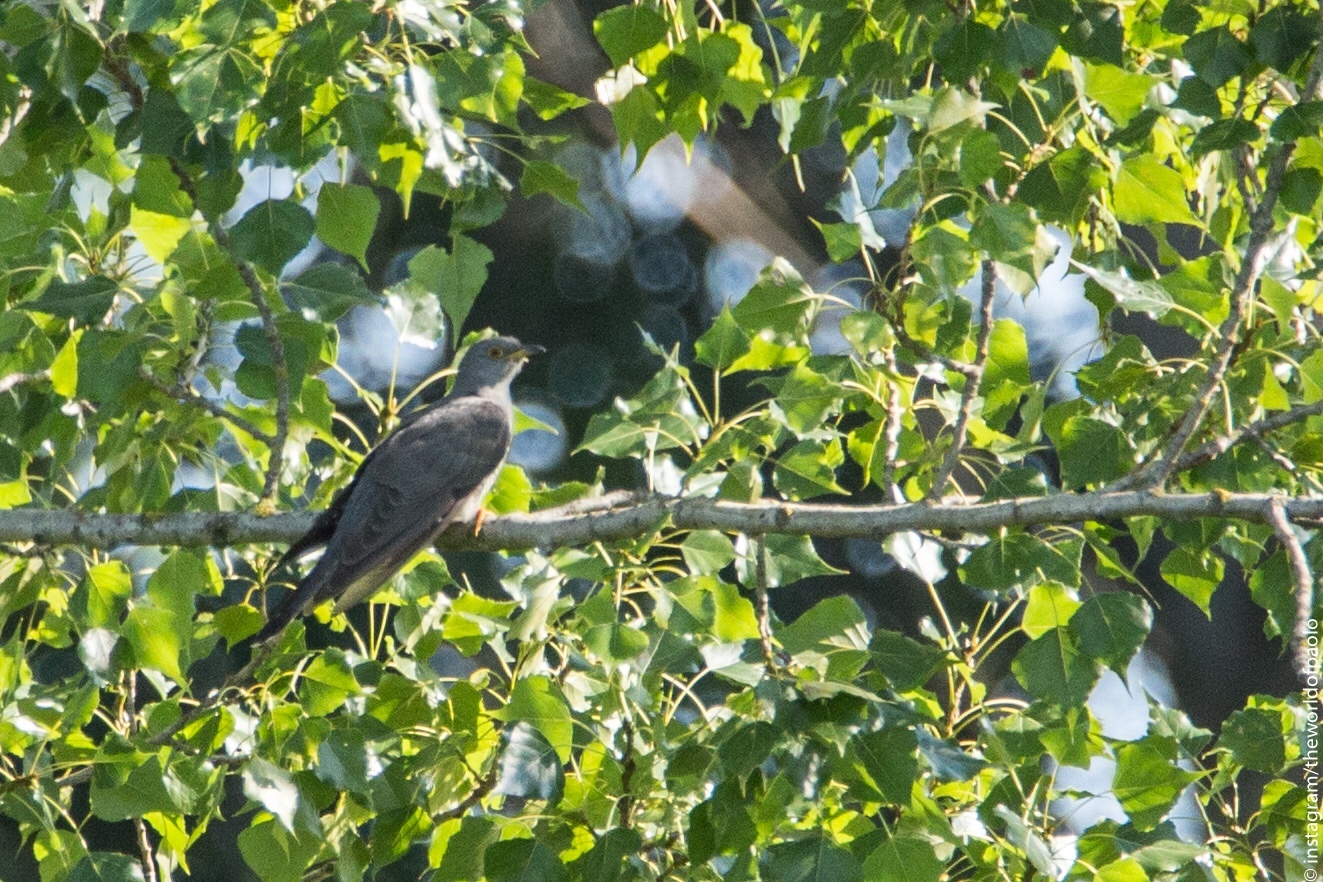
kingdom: Animalia
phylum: Chordata
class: Aves
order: Cuculiformes
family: Cuculidae
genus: Cuculus
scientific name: Cuculus canorus
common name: Common cuckoo
